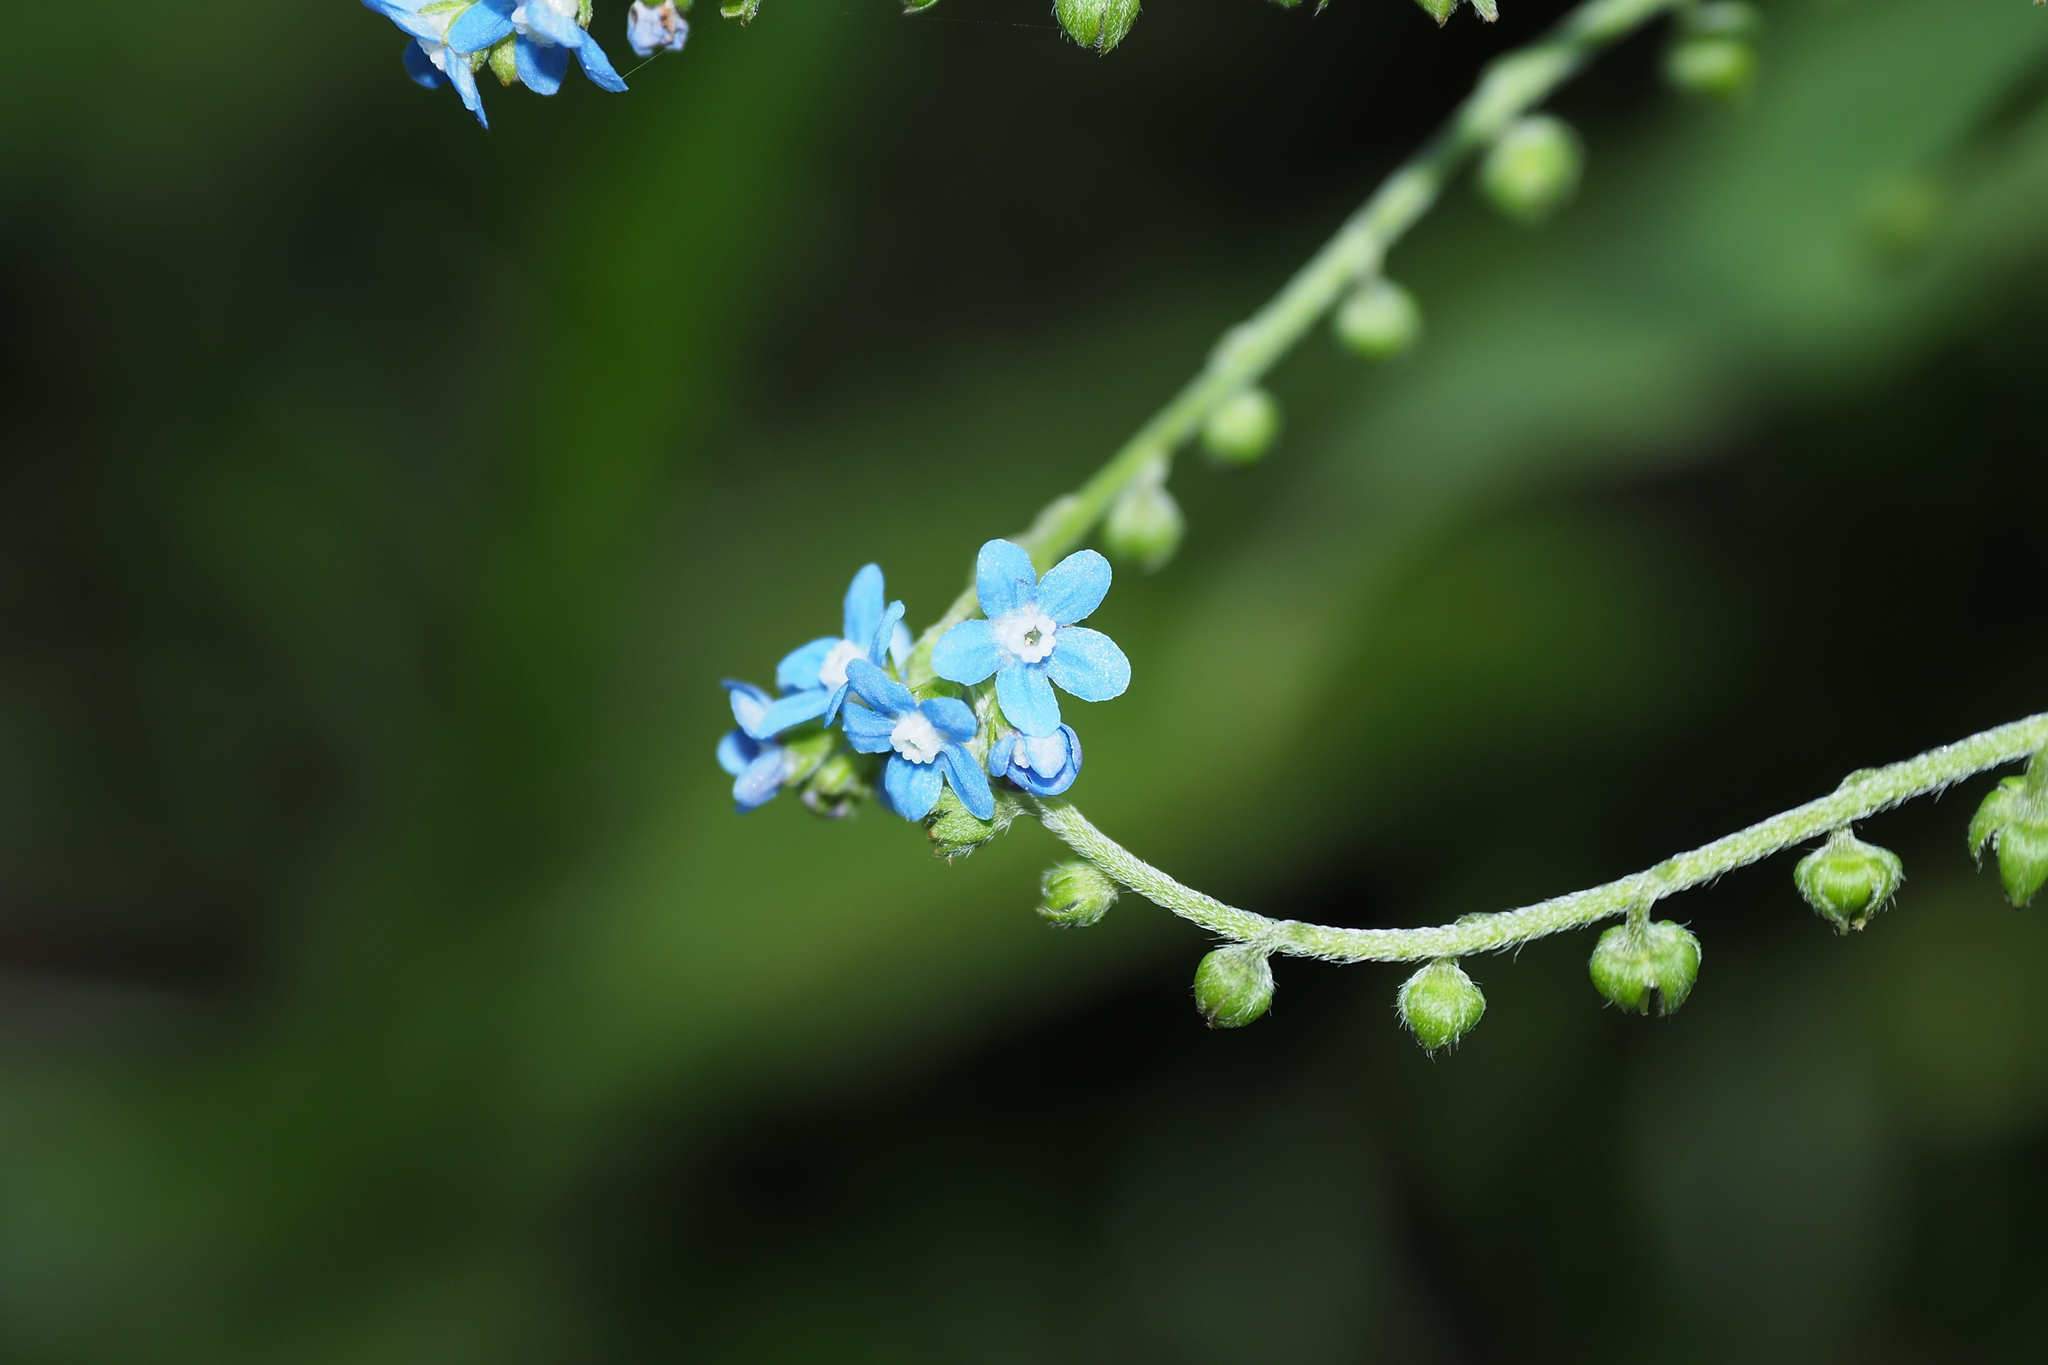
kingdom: Plantae
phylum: Tracheophyta
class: Magnoliopsida
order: Boraginales
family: Boraginaceae
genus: Cynoglossum
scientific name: Cynoglossum zeylanicum
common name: Ceylon hound's tongue
